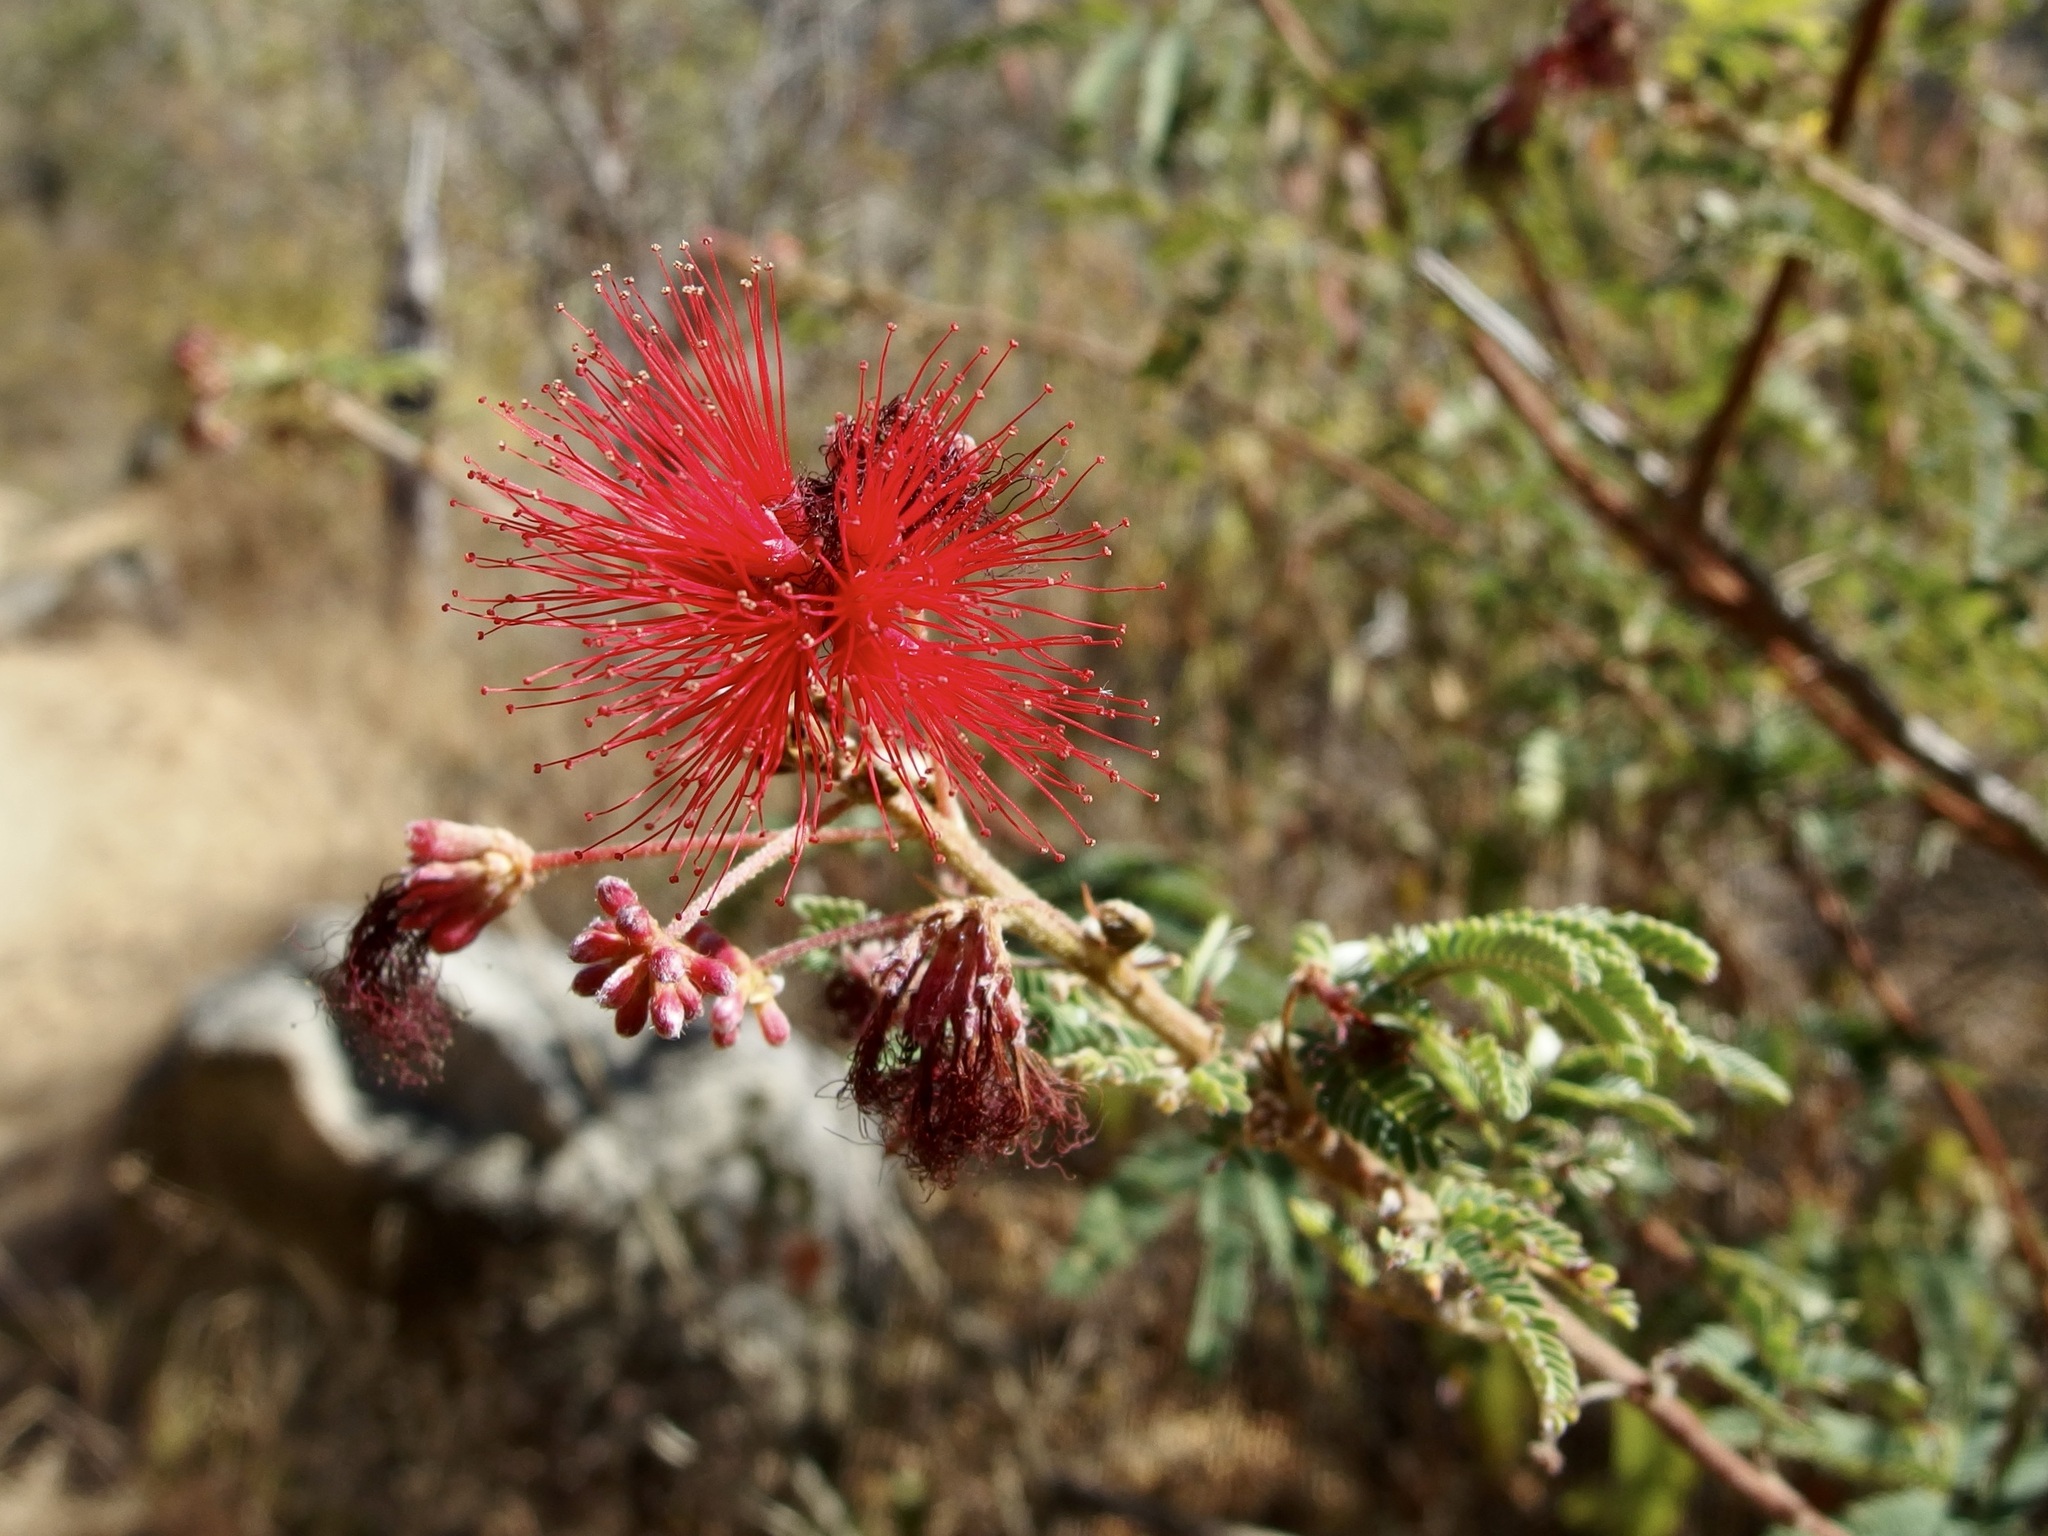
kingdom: Plantae
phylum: Tracheophyta
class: Magnoliopsida
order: Fabales
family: Fabaceae
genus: Calliandra
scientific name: Calliandra californica
